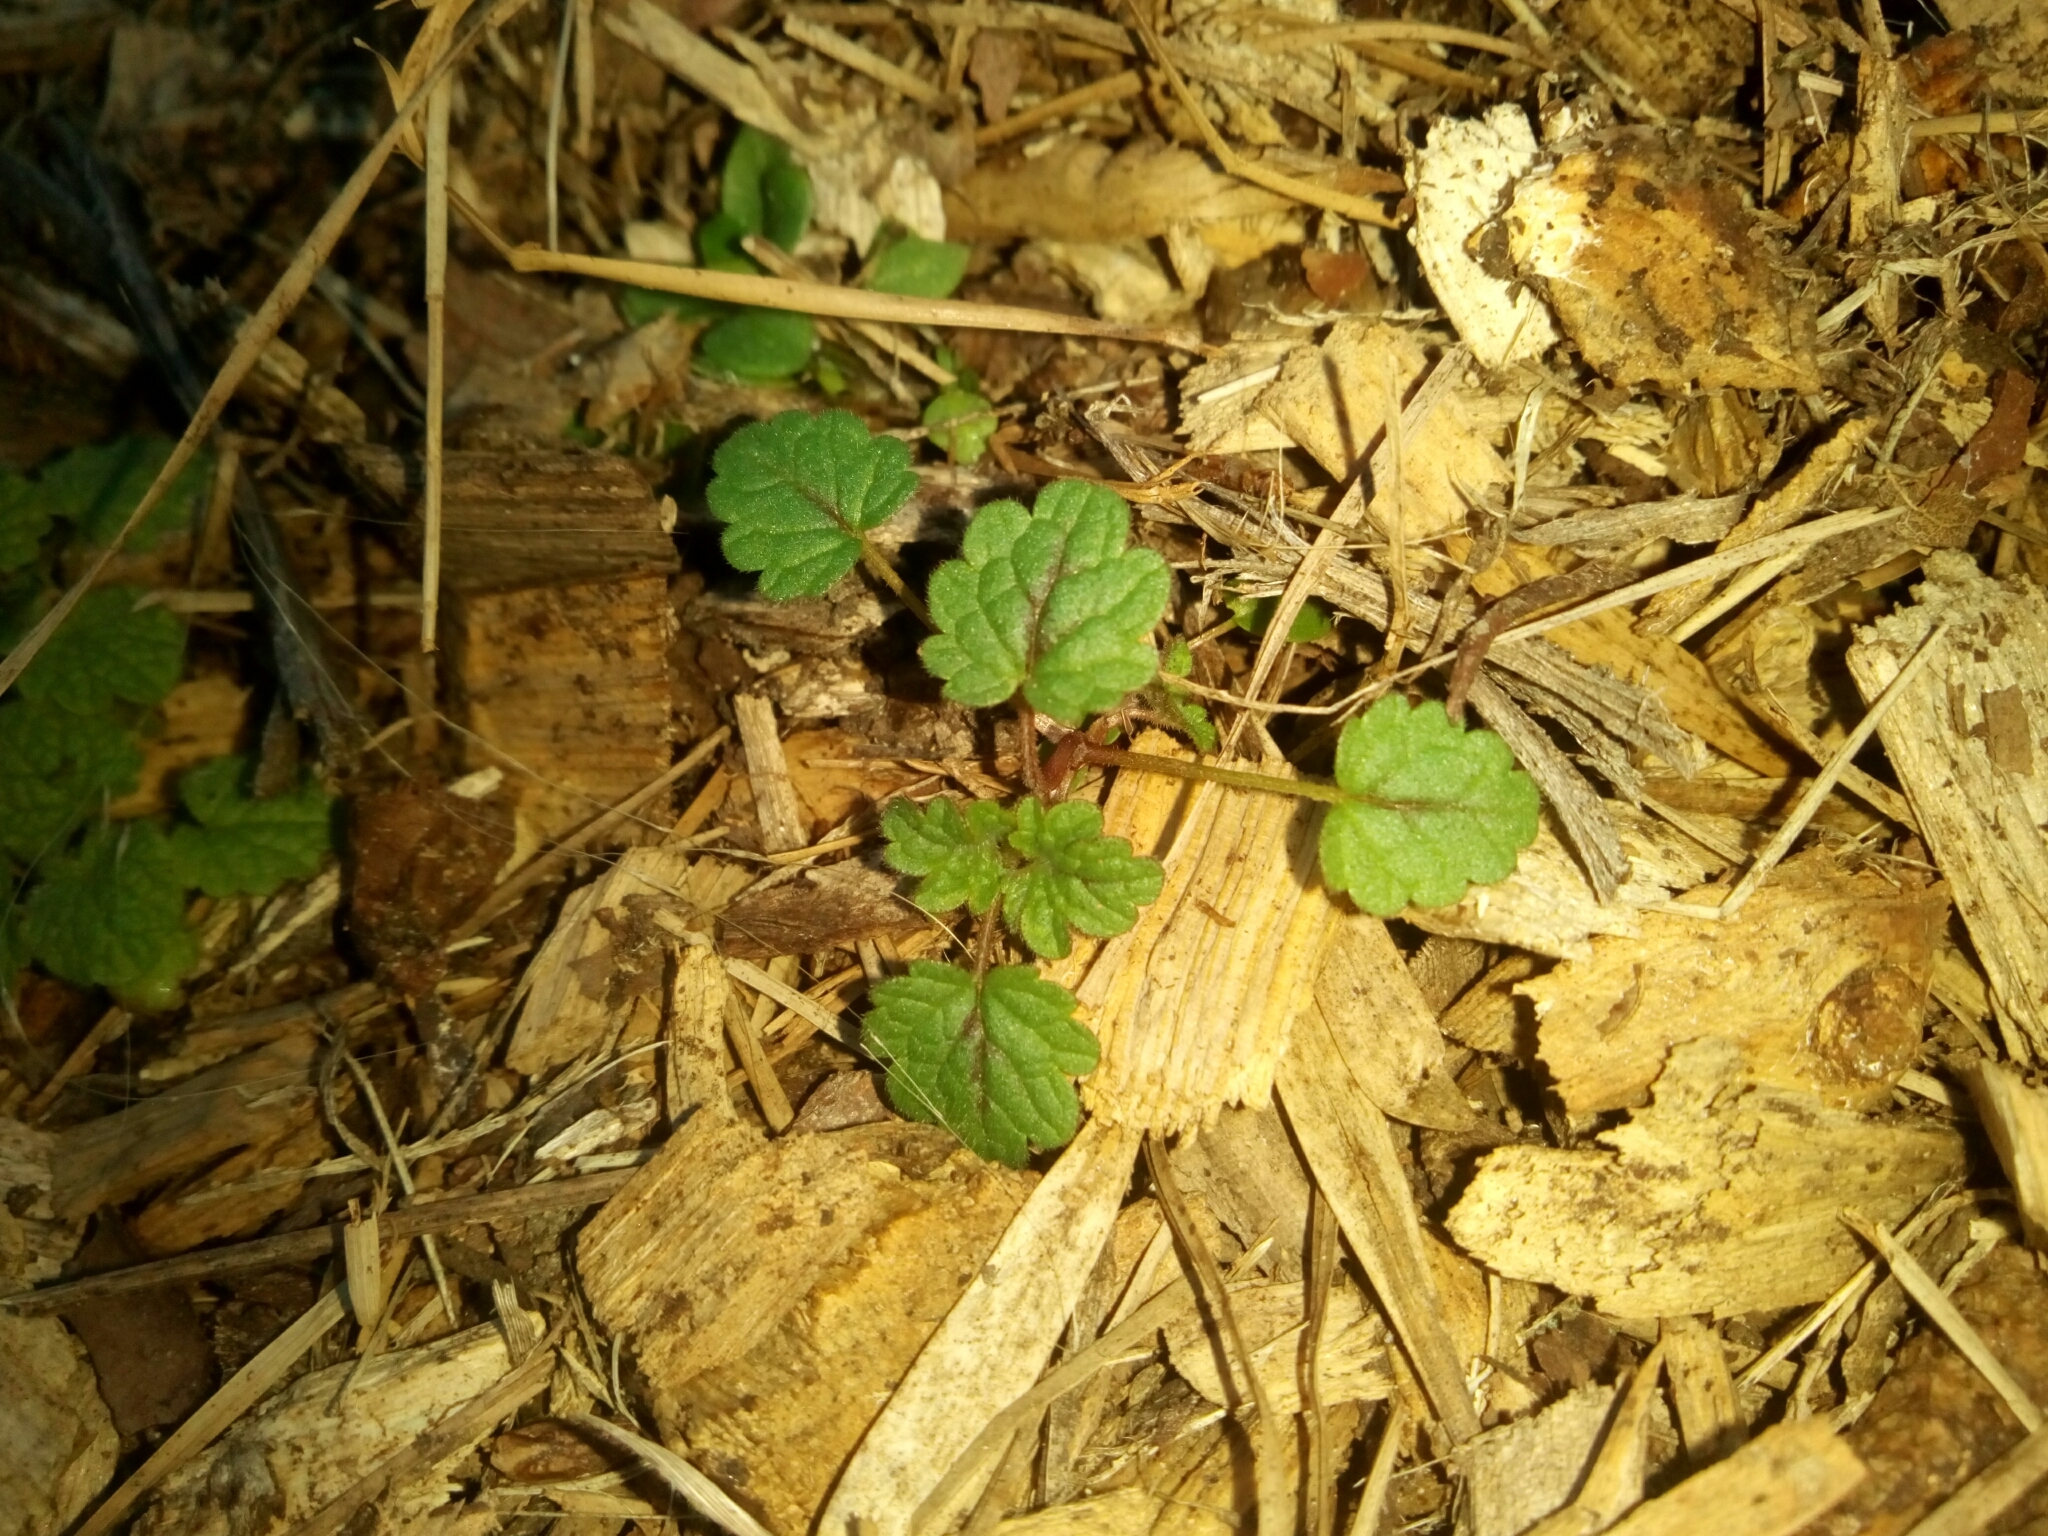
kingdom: Plantae
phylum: Tracheophyta
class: Magnoliopsida
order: Lamiales
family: Lamiaceae
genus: Lamium
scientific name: Lamium amplexicaule
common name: Henbit dead-nettle
